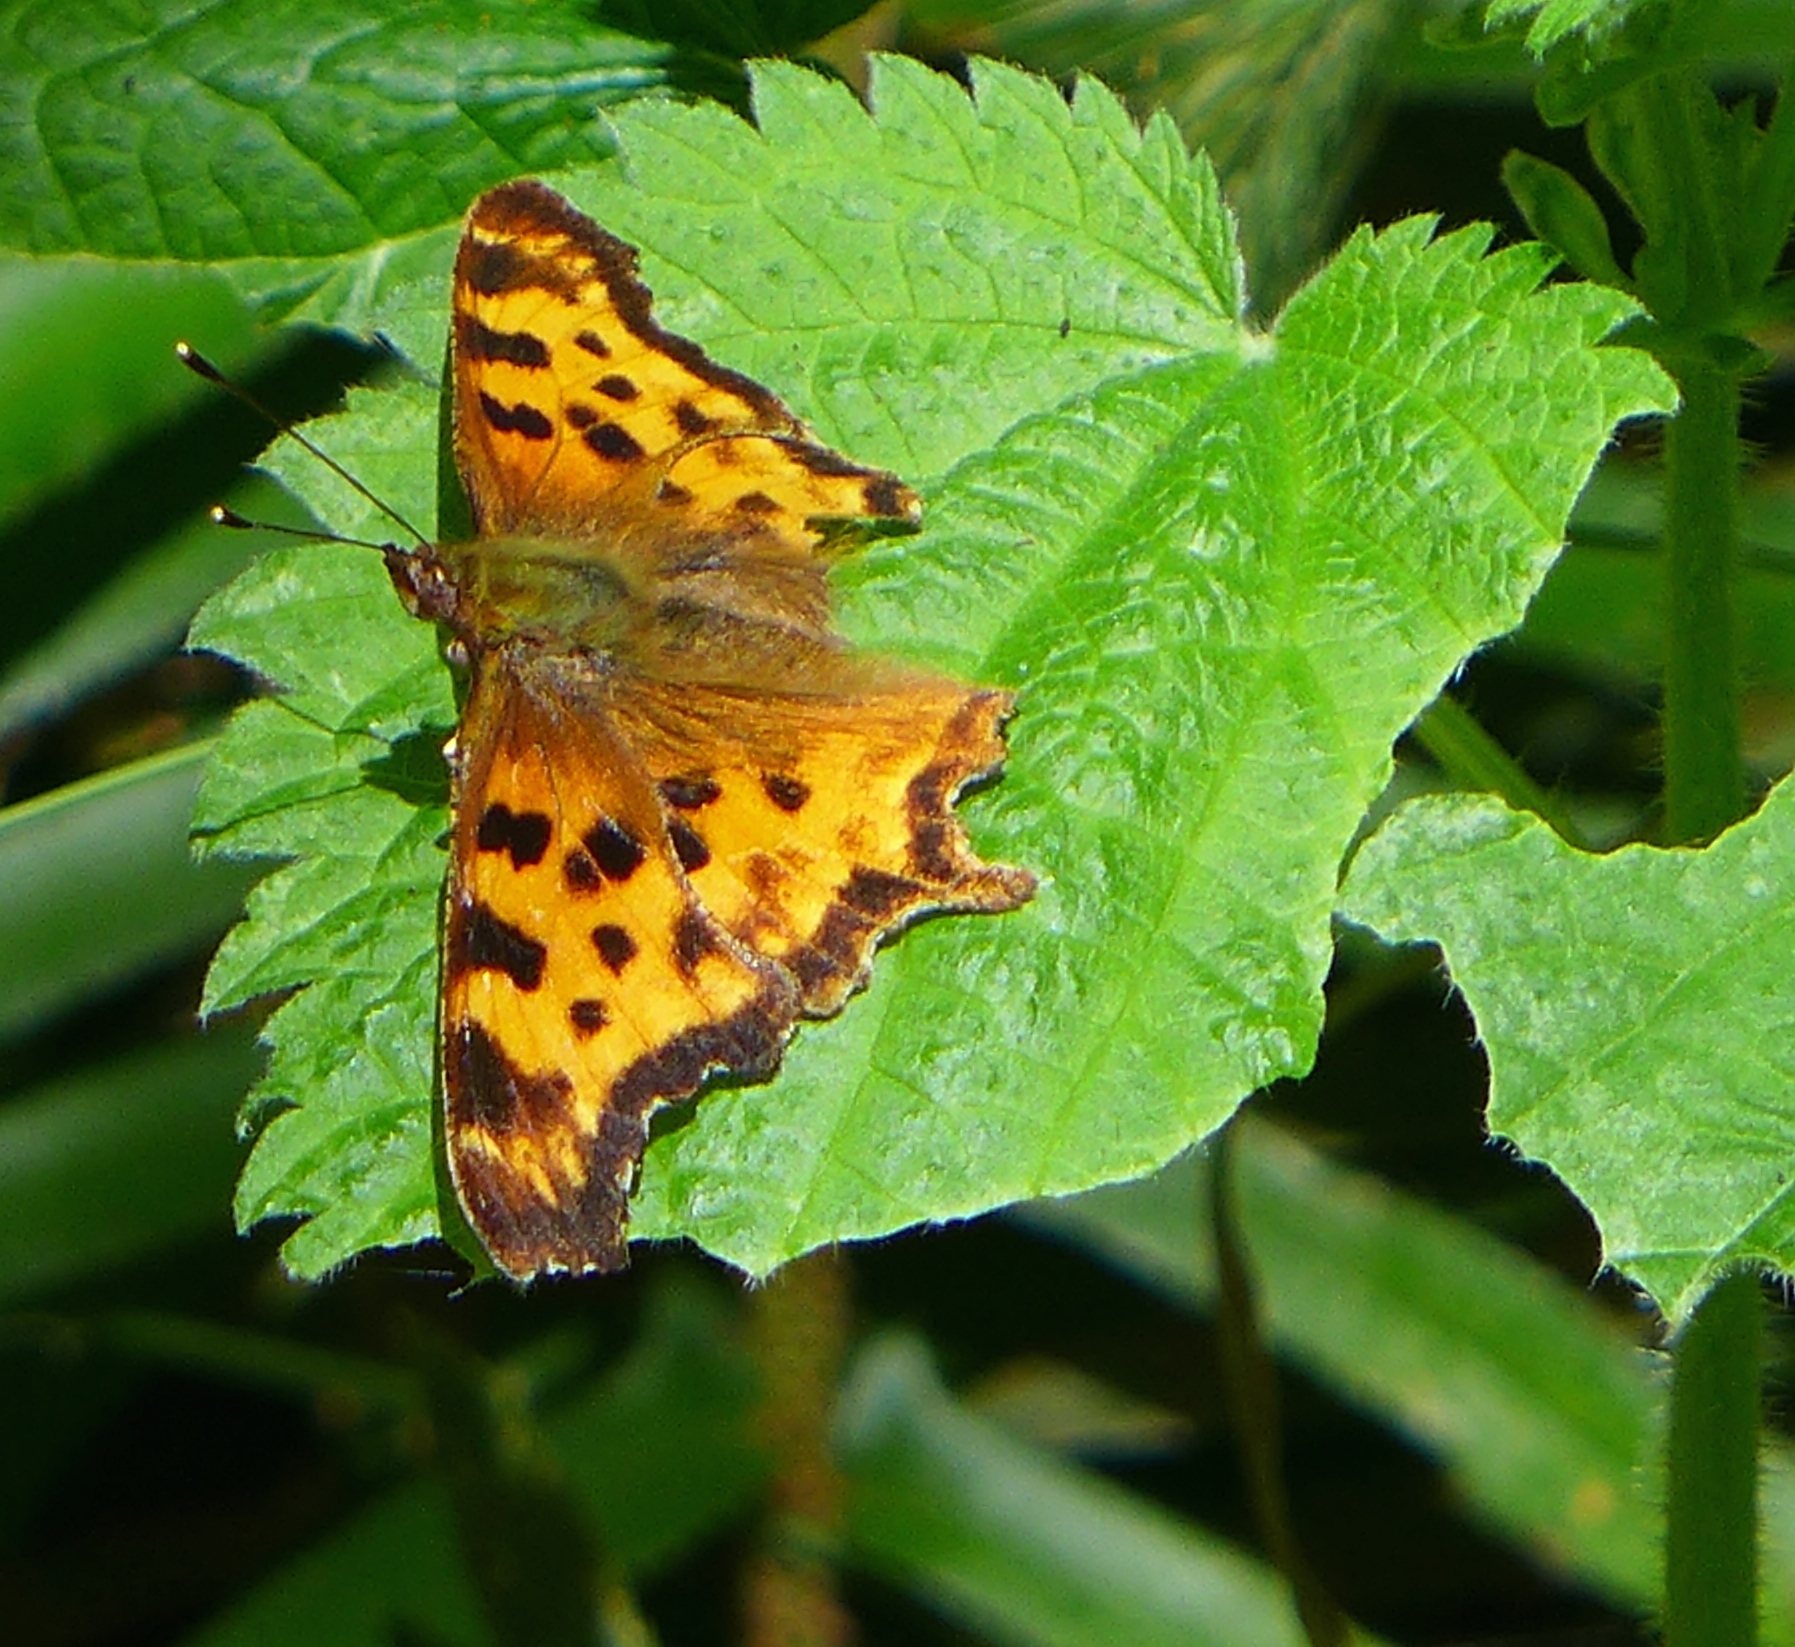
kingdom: Animalia
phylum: Arthropoda
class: Insecta
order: Lepidoptera
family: Nymphalidae
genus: Polygonia
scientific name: Polygonia satyrus
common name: Satyr angle wing
